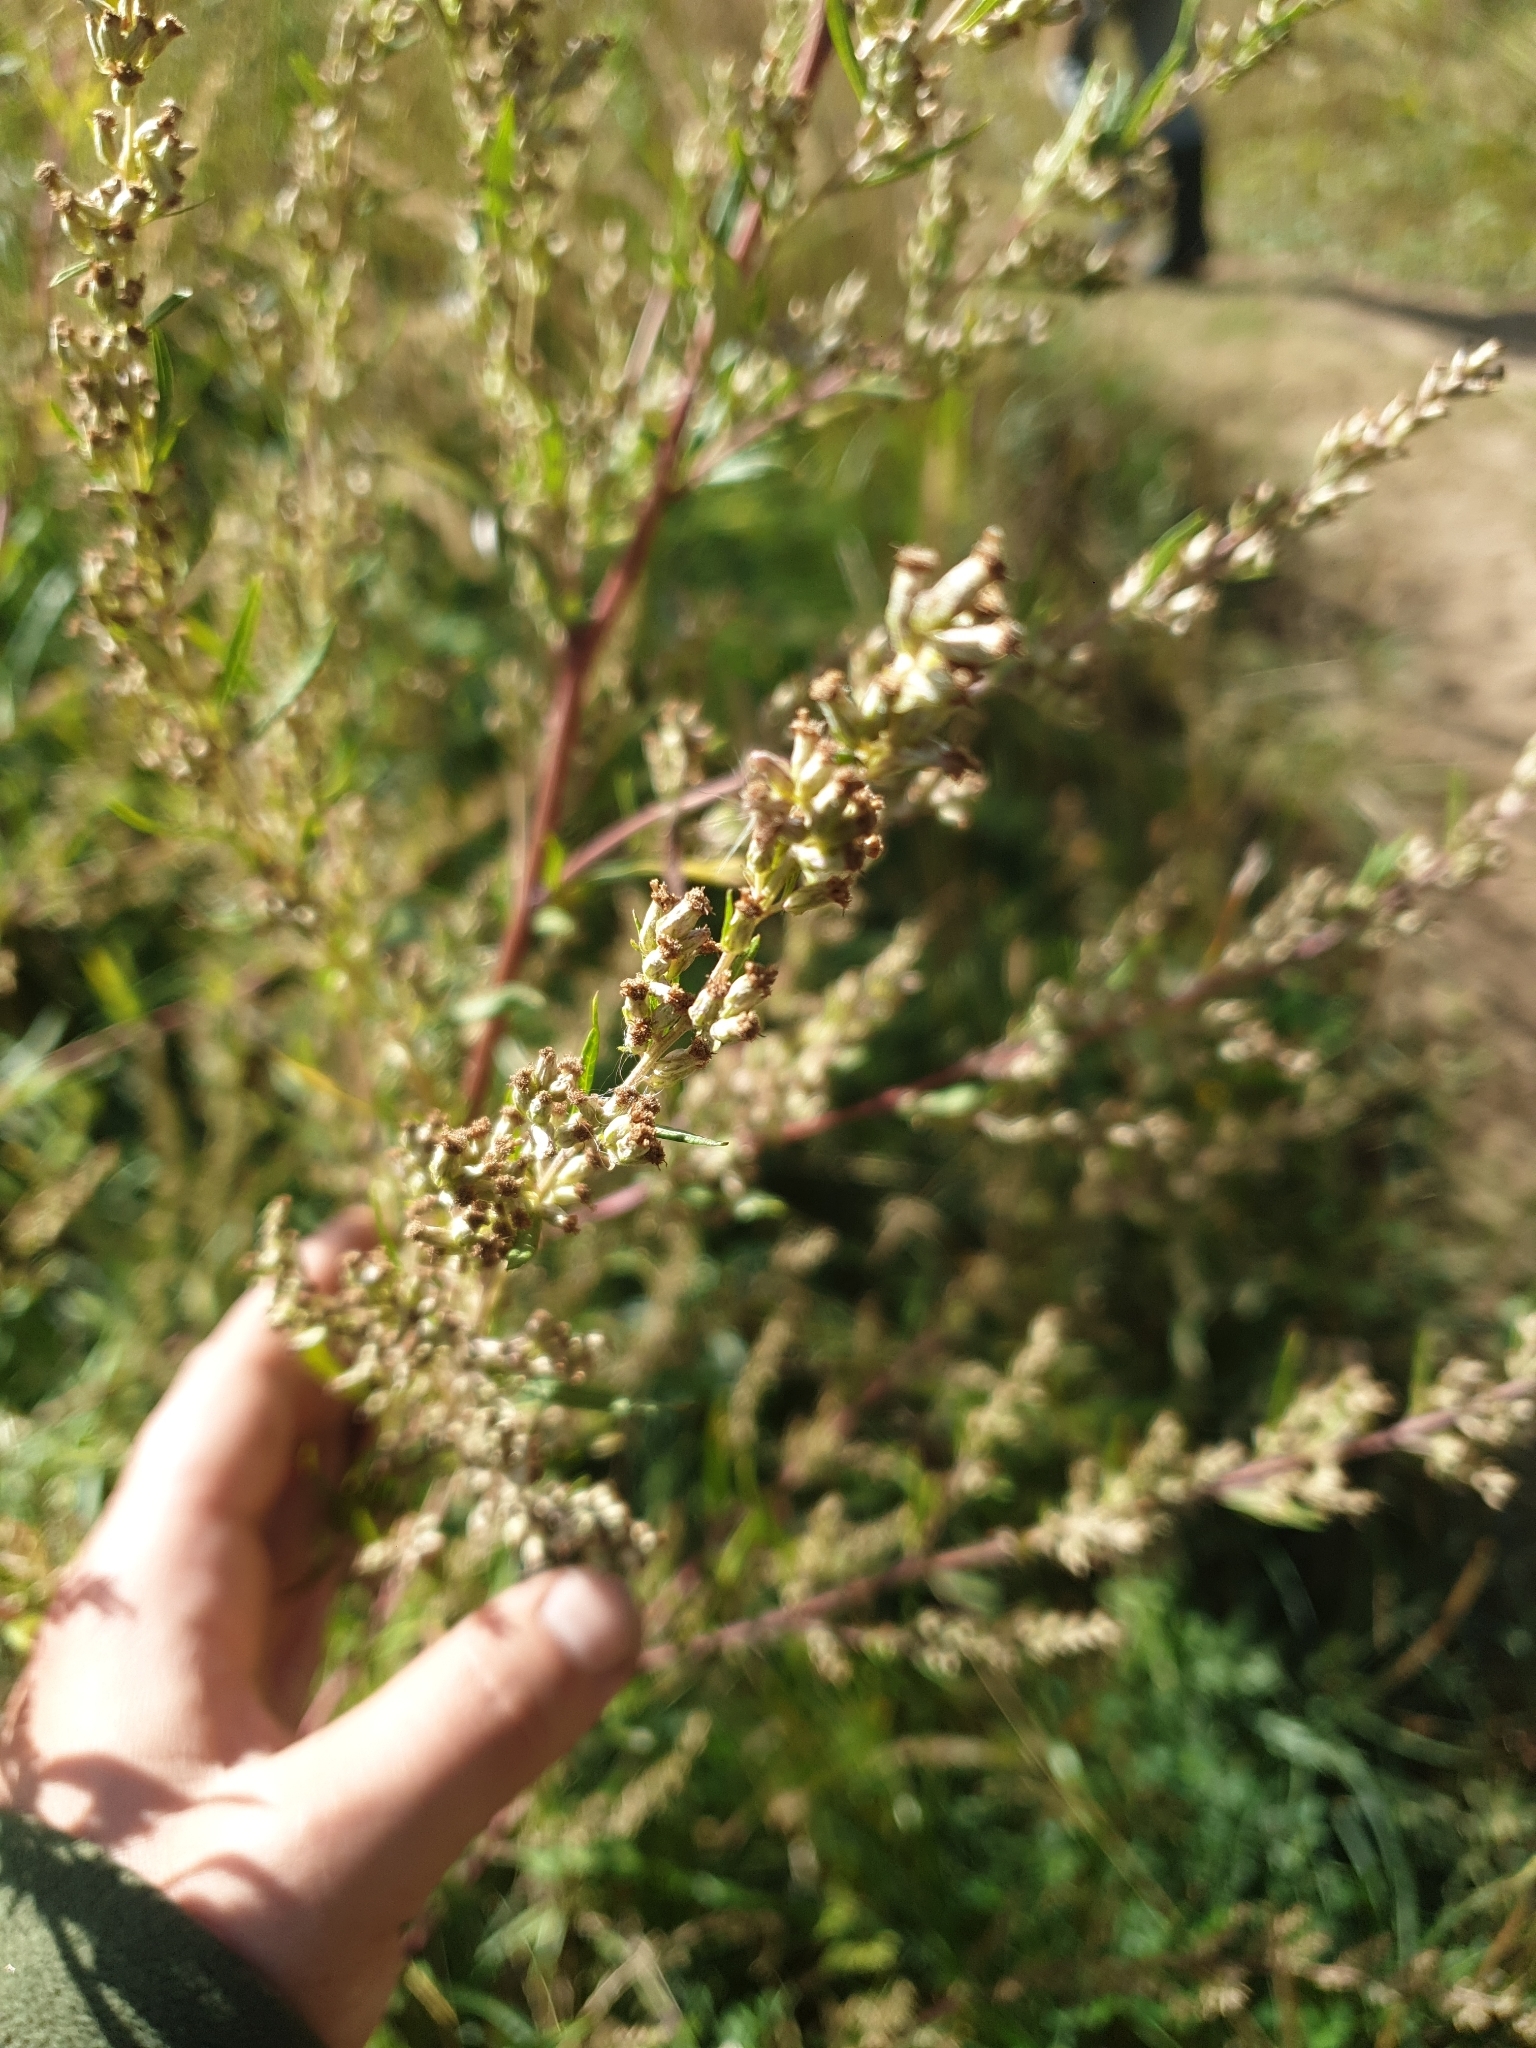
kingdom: Plantae
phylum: Tracheophyta
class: Magnoliopsida
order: Asterales
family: Asteraceae
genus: Artemisia
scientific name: Artemisia vulgaris
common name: Mugwort
